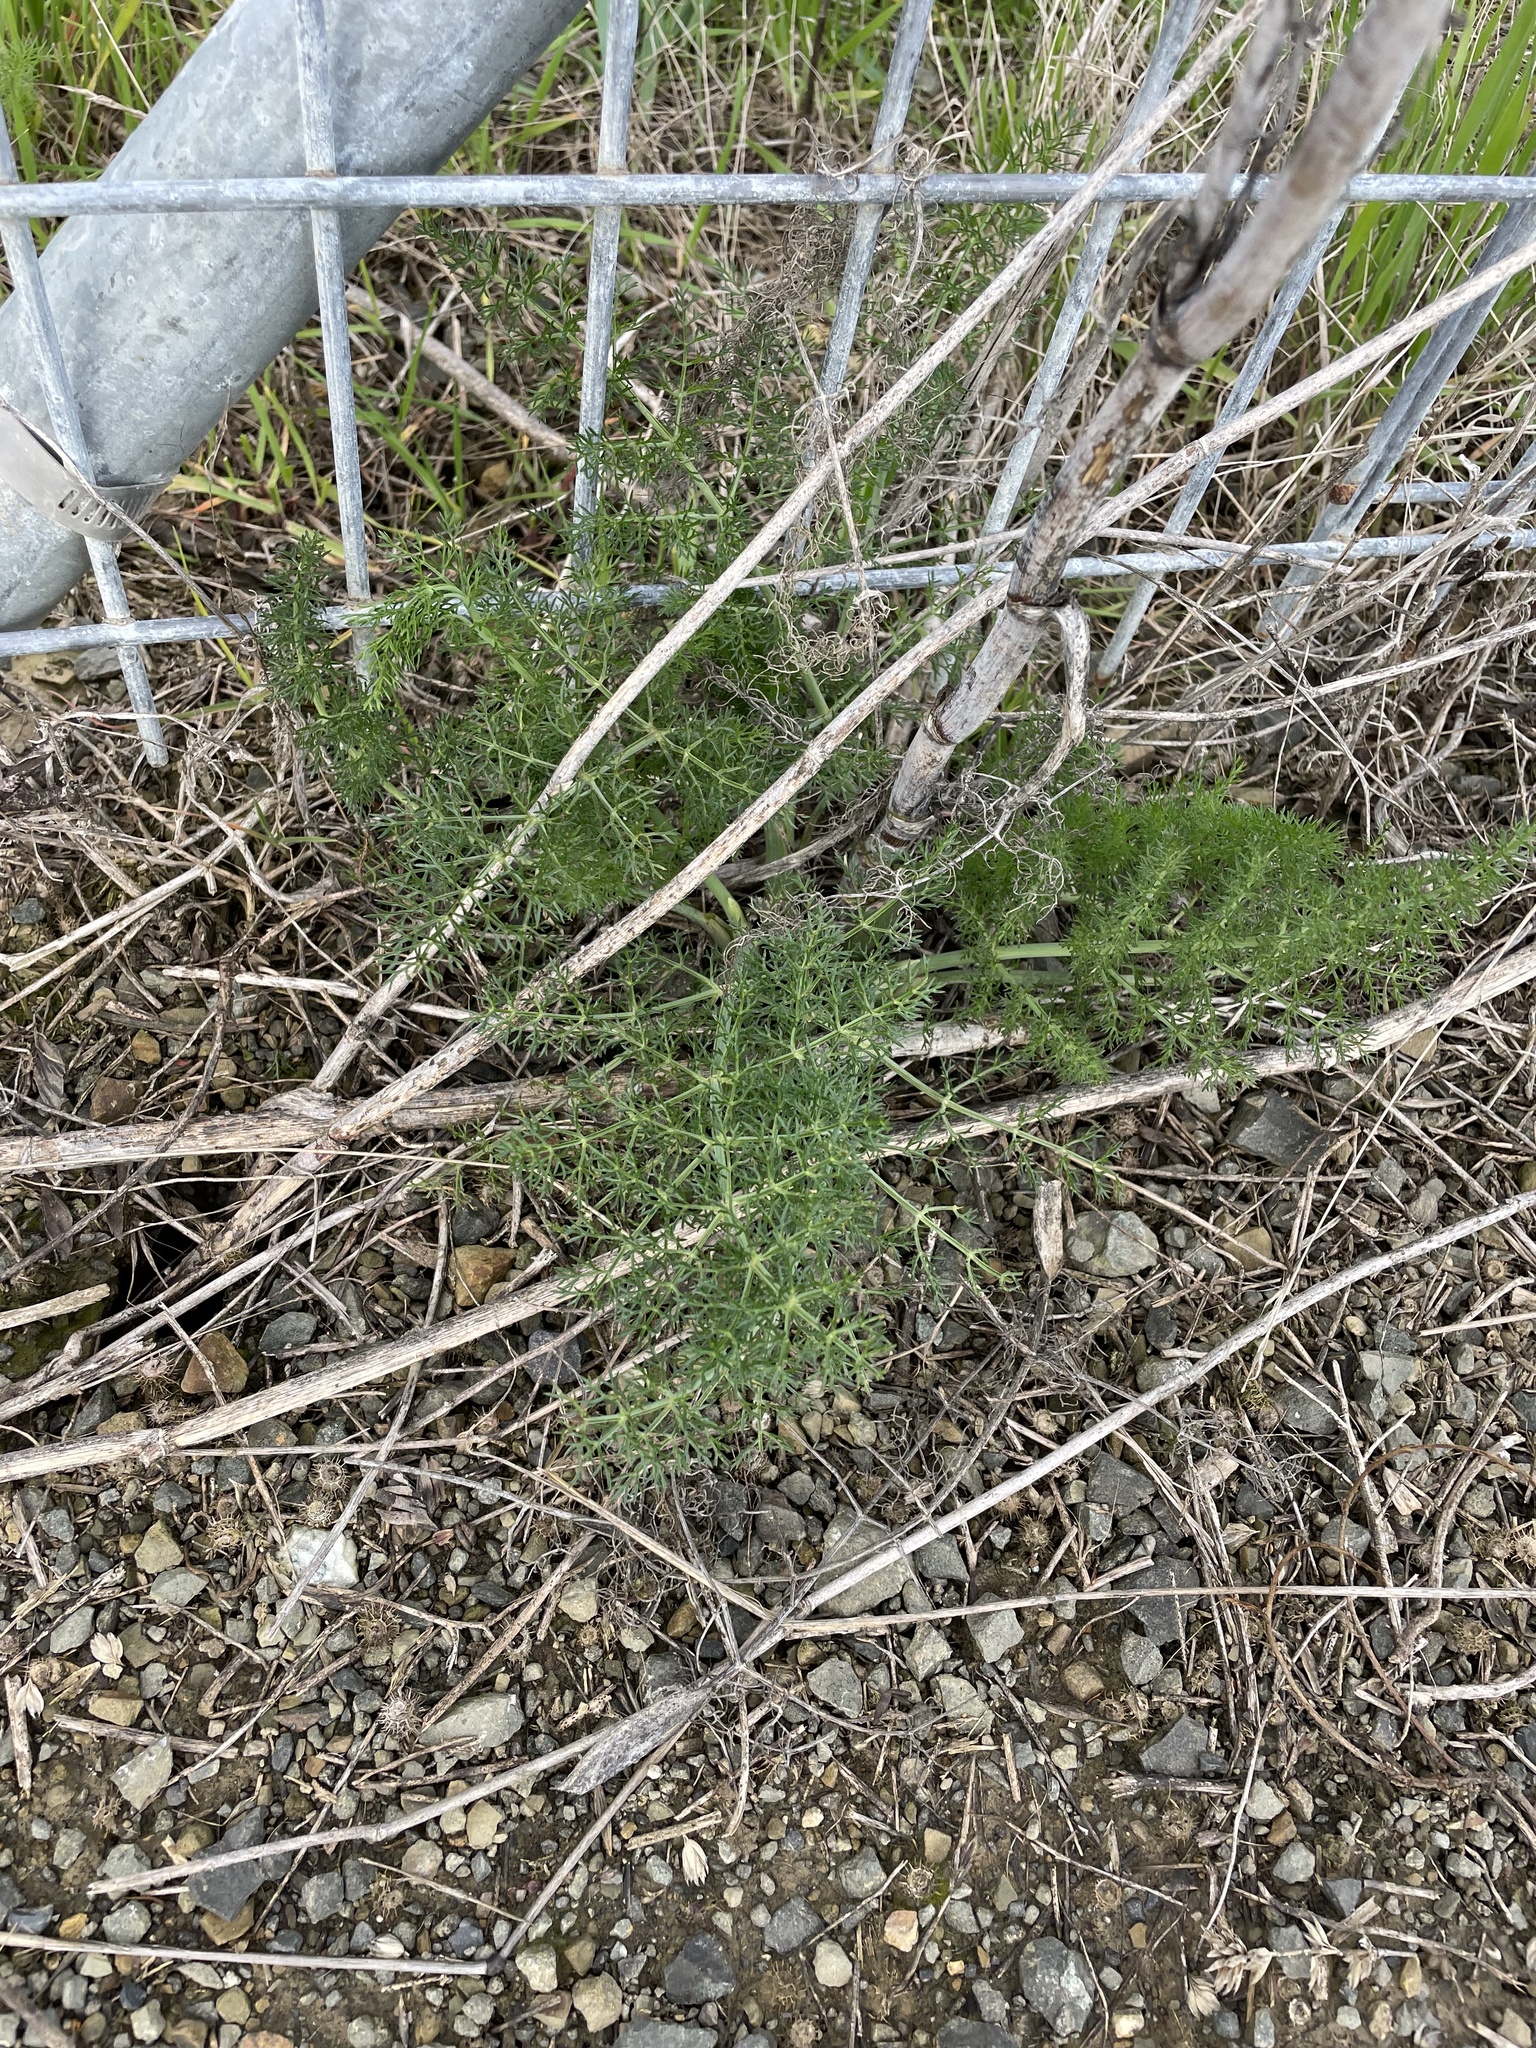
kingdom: Plantae
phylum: Tracheophyta
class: Magnoliopsida
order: Apiales
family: Apiaceae
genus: Foeniculum
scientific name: Foeniculum vulgare
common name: Fennel
